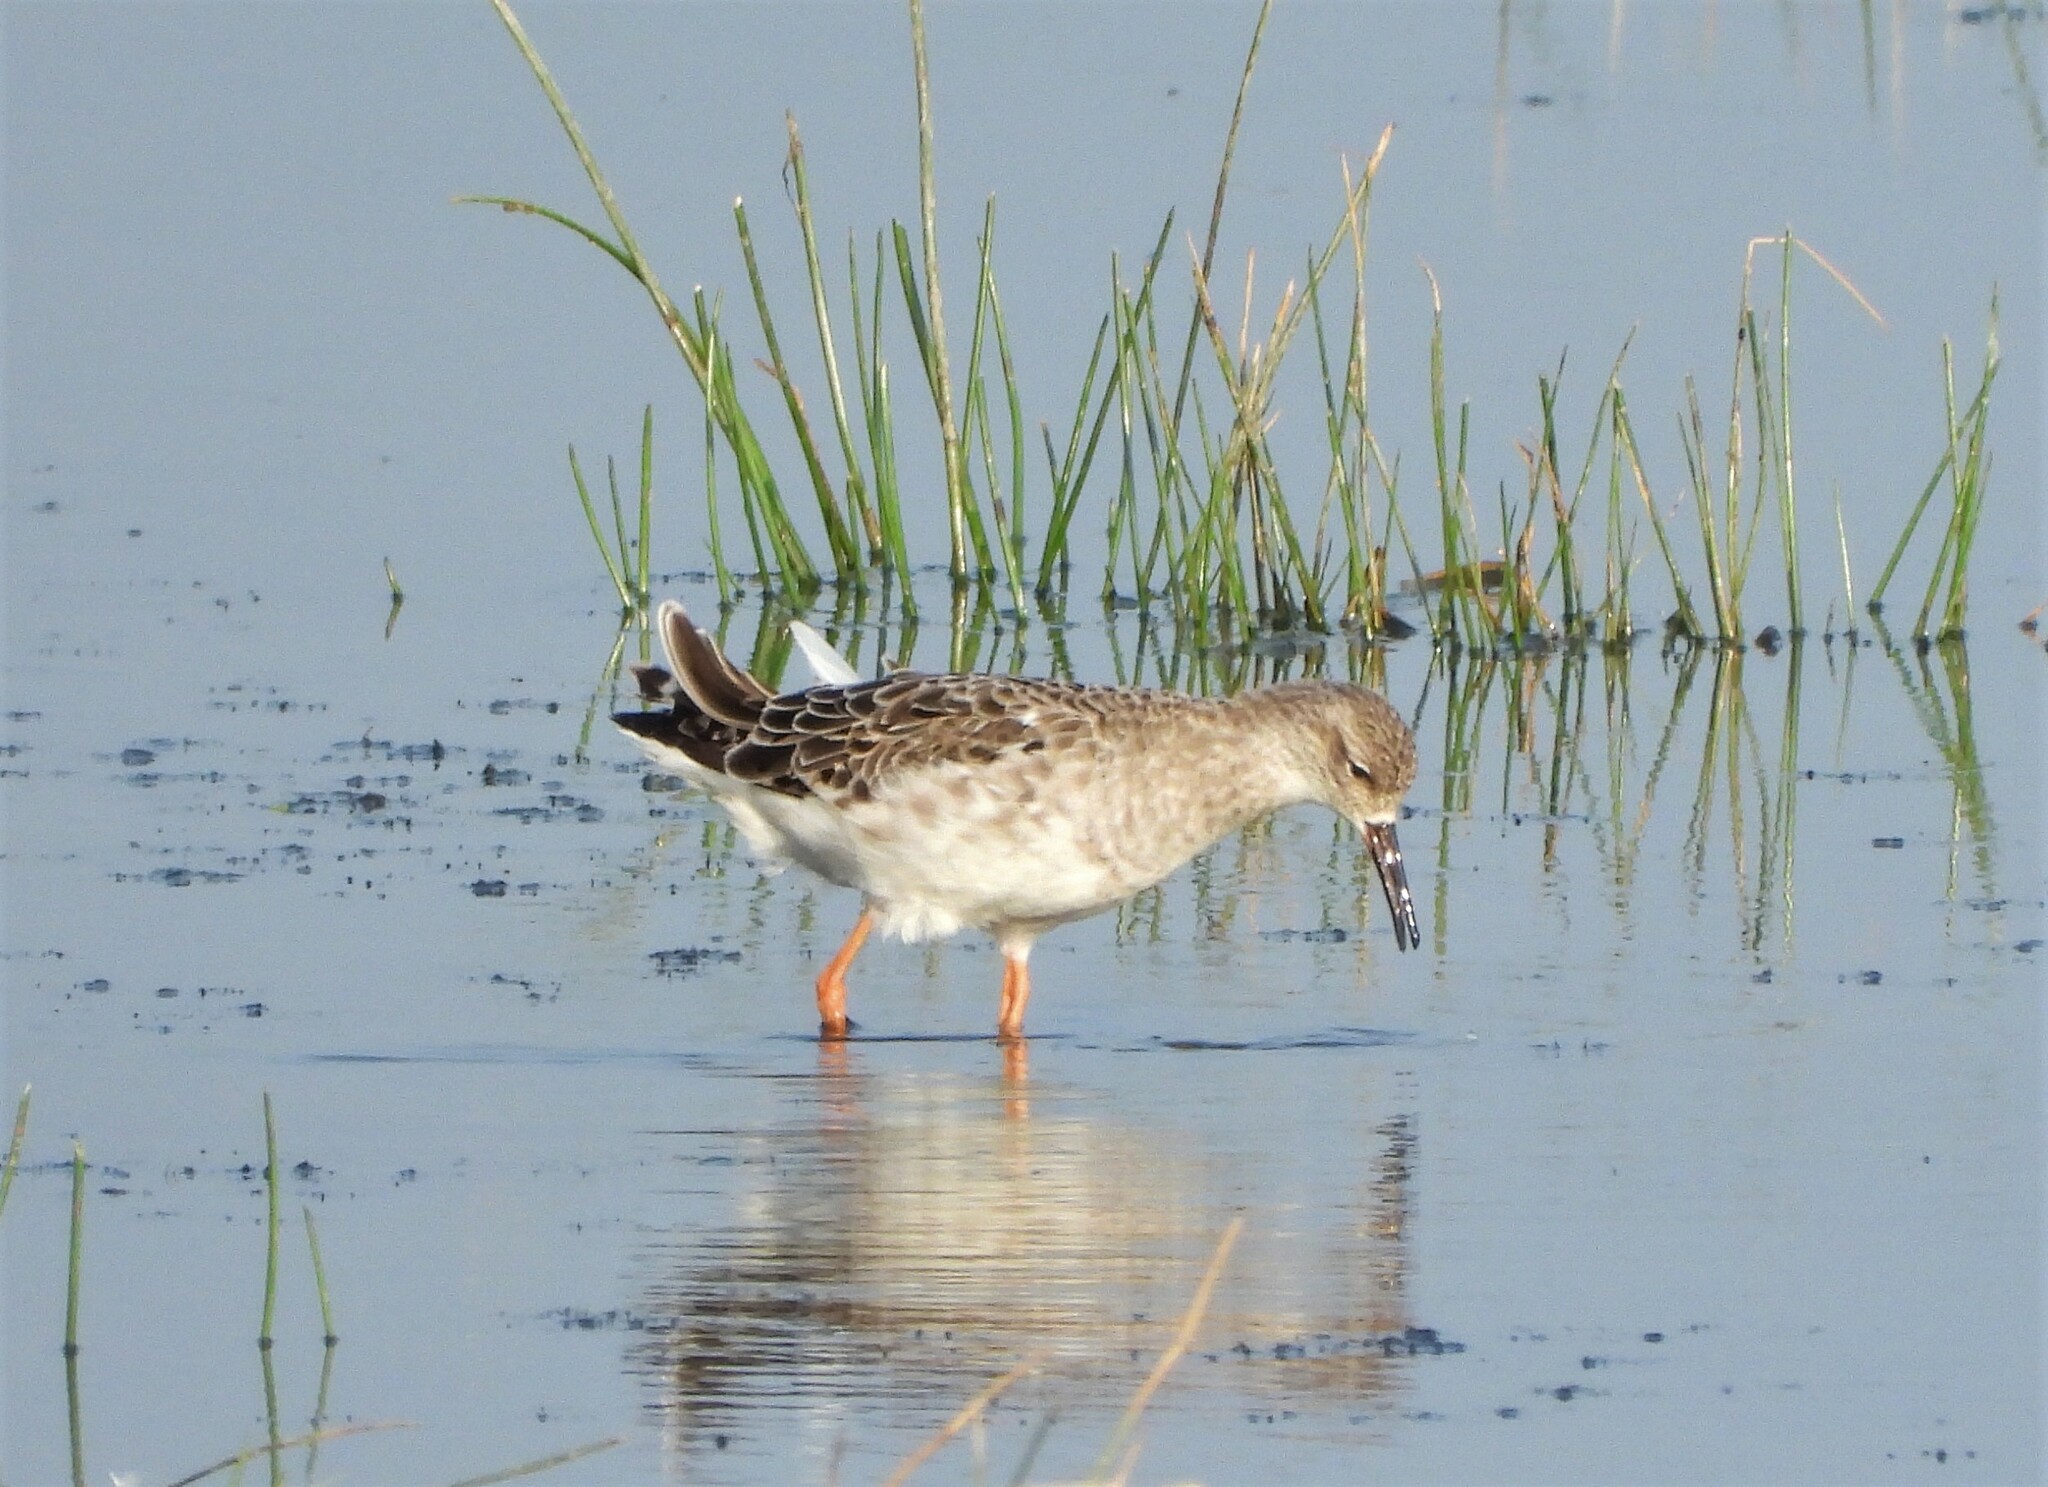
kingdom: Animalia
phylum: Chordata
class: Aves
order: Charadriiformes
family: Scolopacidae
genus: Calidris
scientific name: Calidris pugnax
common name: Ruff
